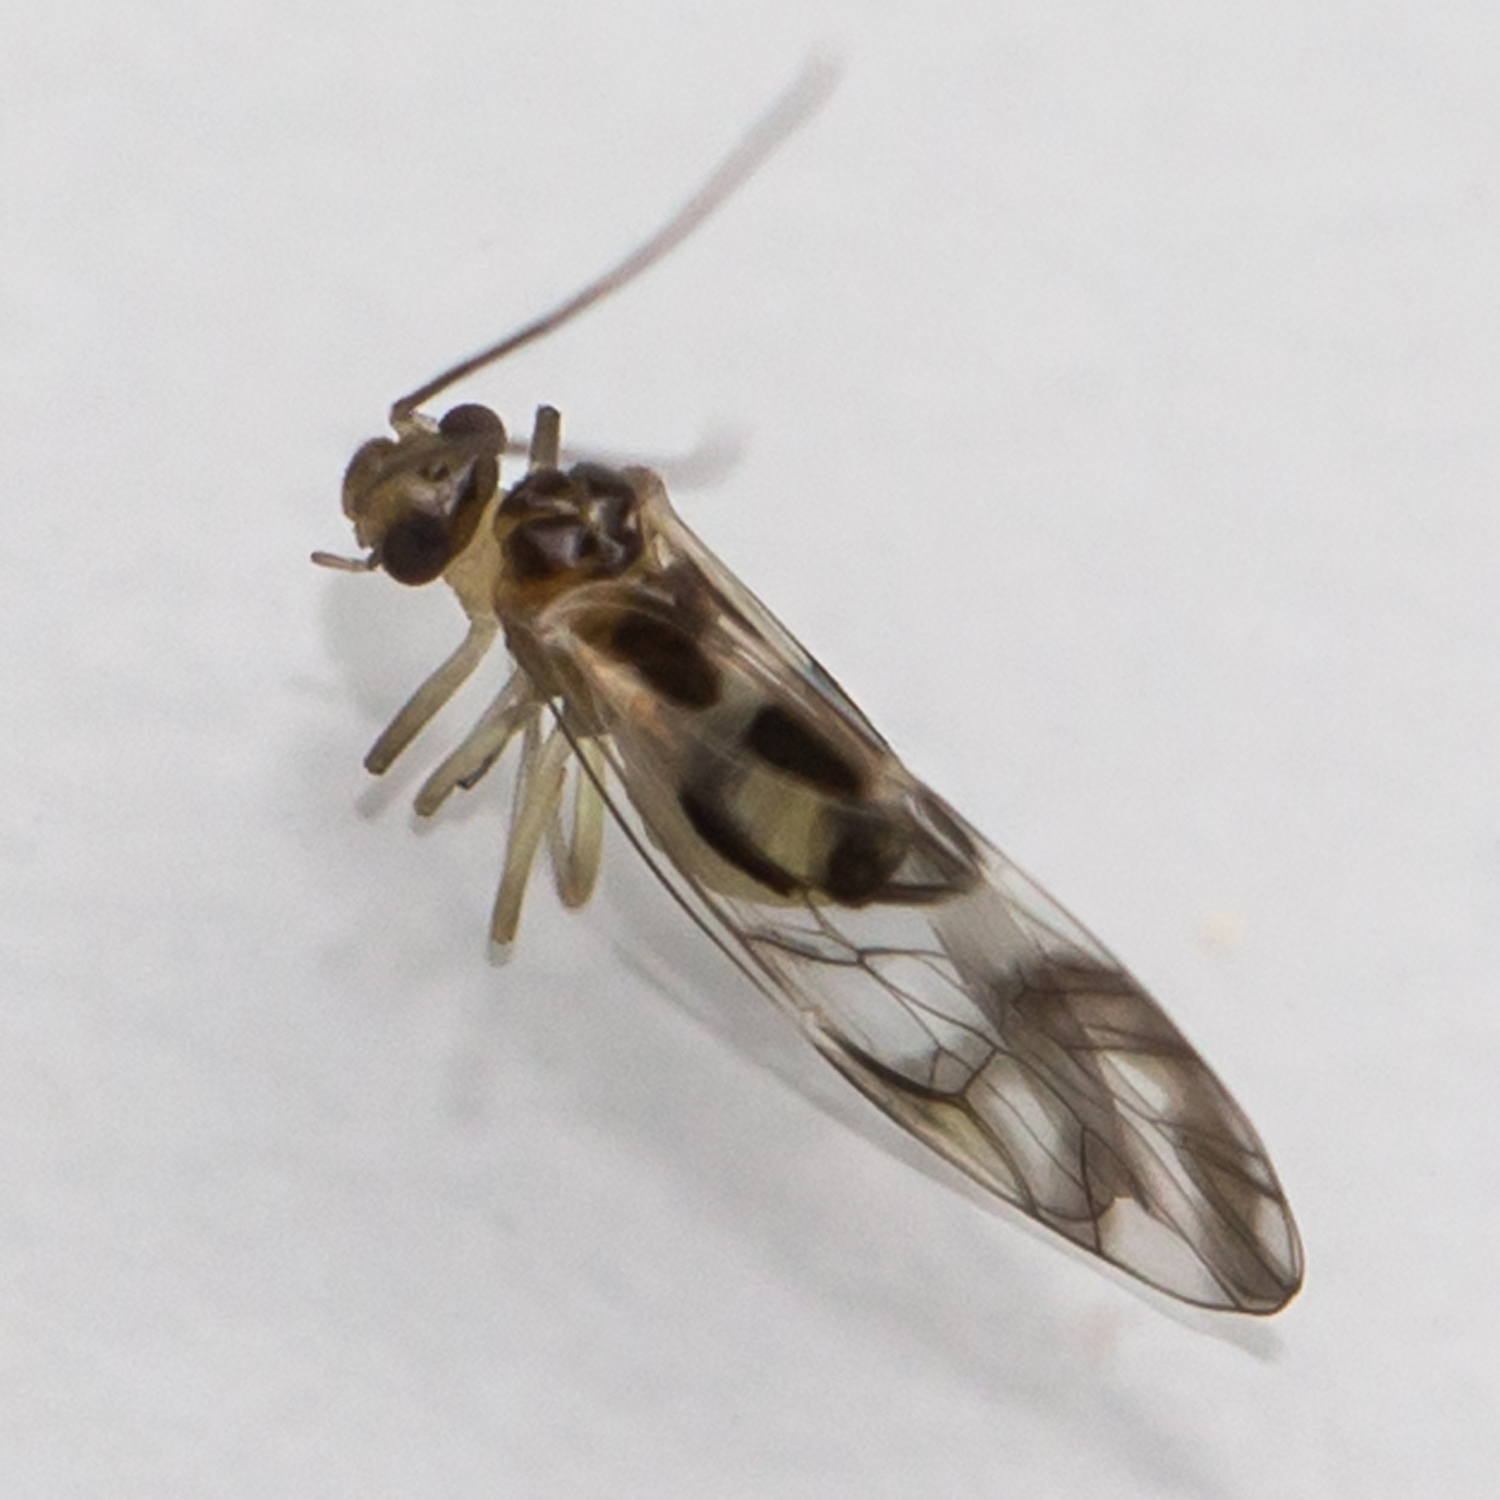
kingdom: Animalia
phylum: Arthropoda
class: Insecta
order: Psocodea
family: Stenopsocidae
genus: Graphopsocus
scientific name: Graphopsocus cruciatus
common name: Lizard bark louse
